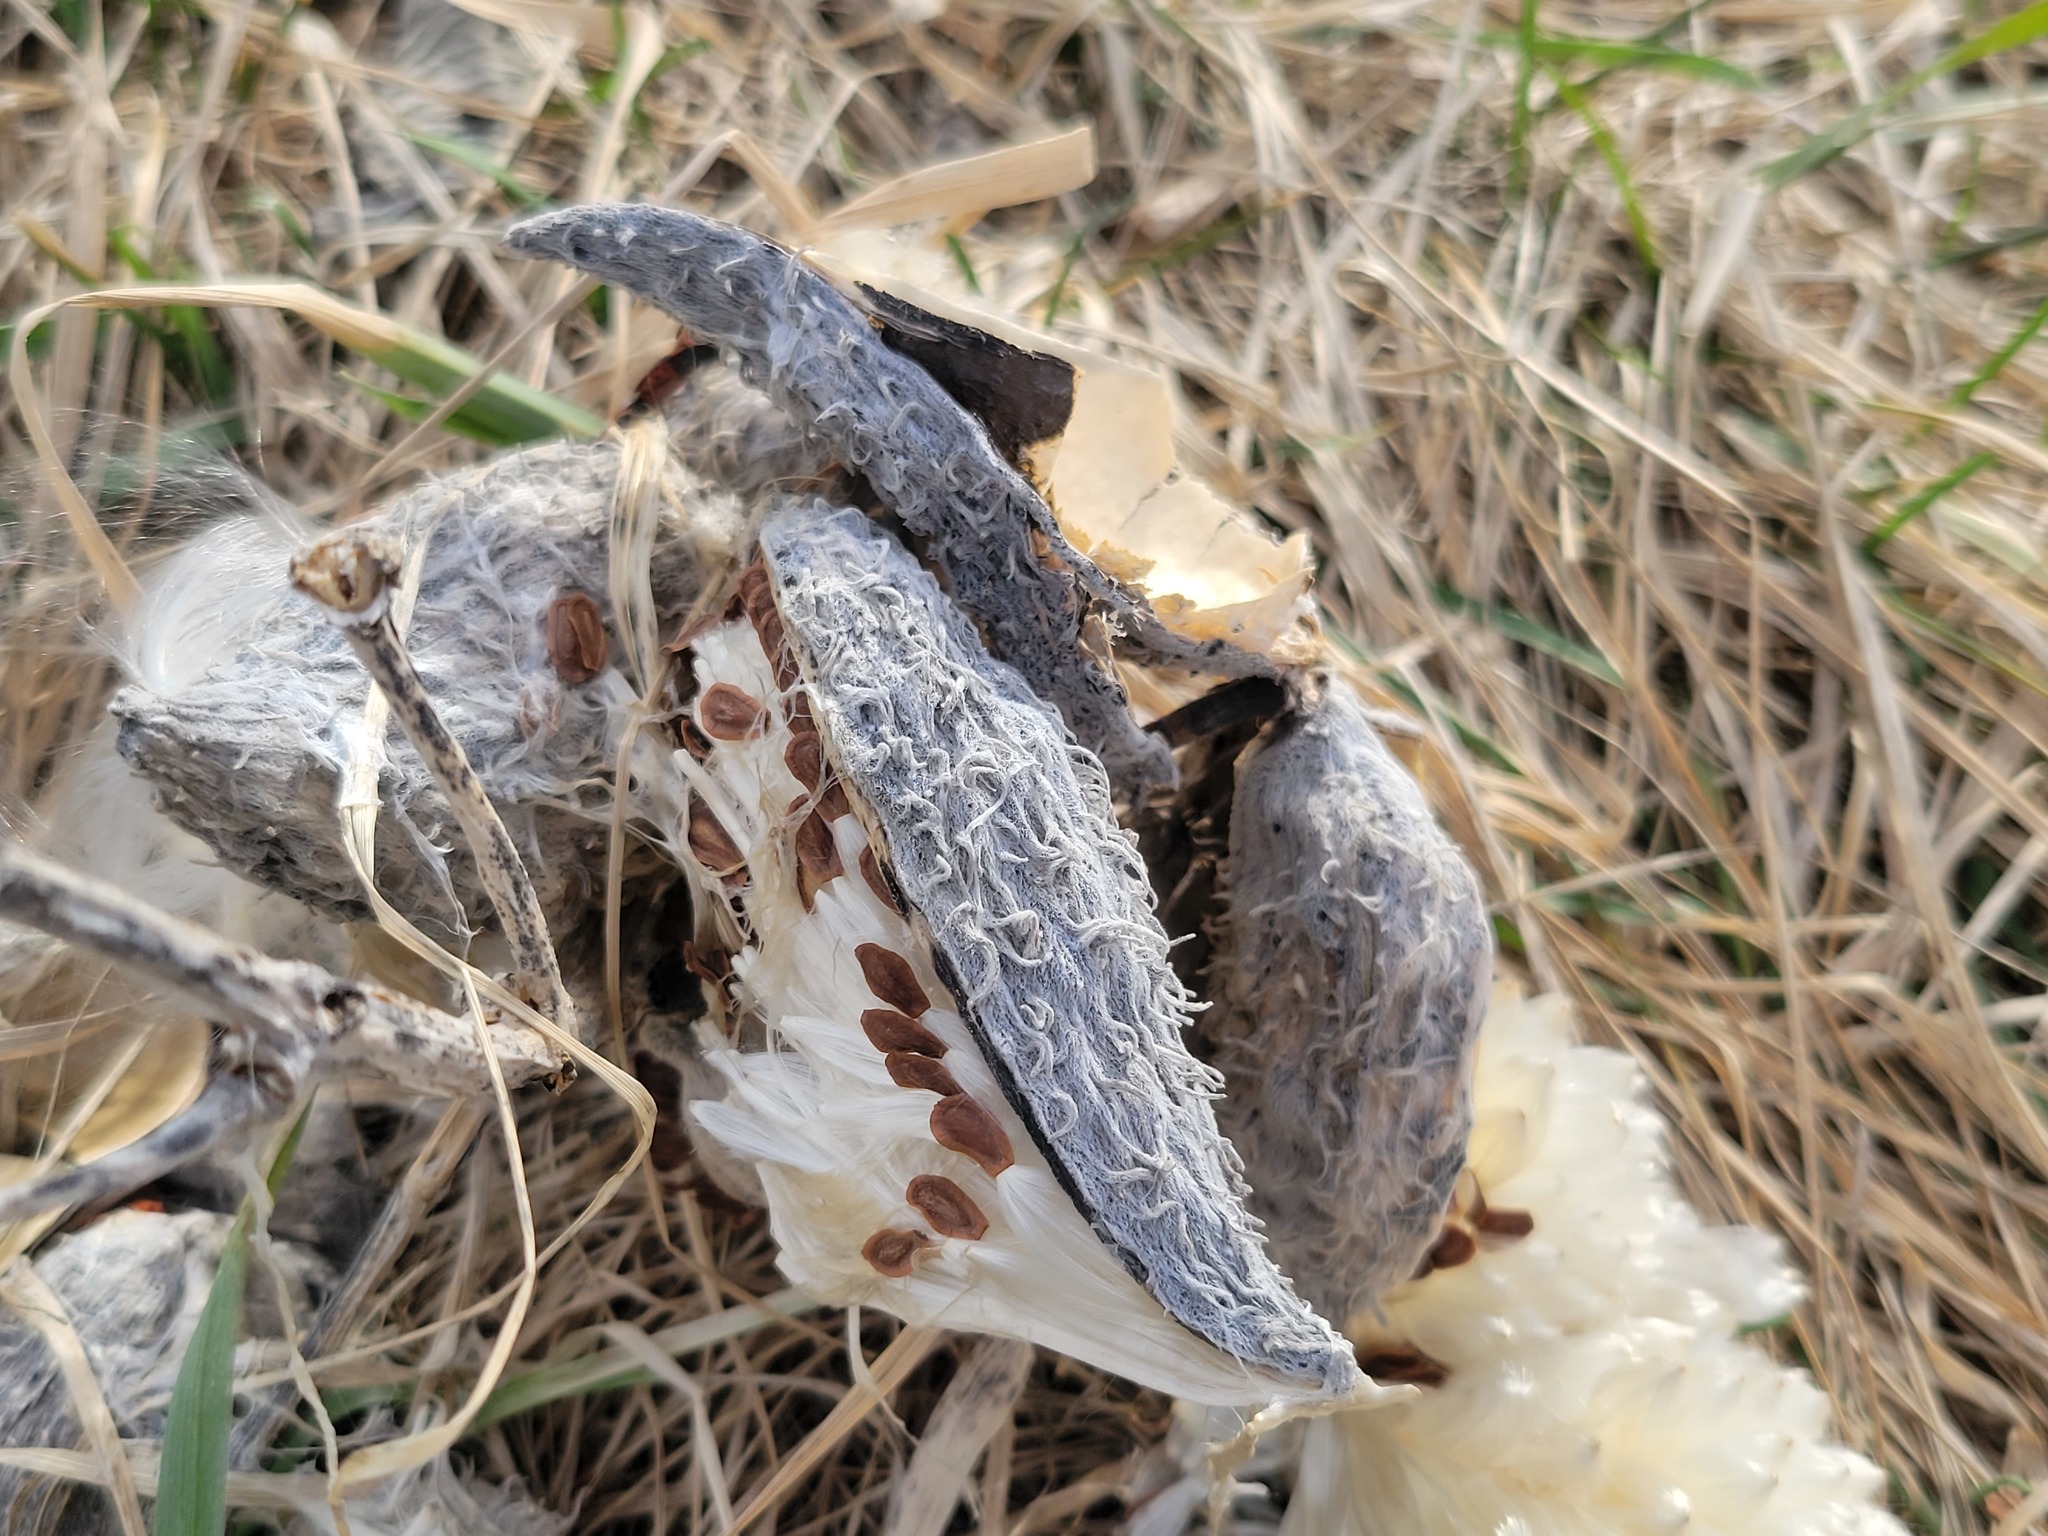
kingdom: Plantae
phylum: Tracheophyta
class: Magnoliopsida
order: Gentianales
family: Apocynaceae
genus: Asclepias
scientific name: Asclepias syriaca
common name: Common milkweed
